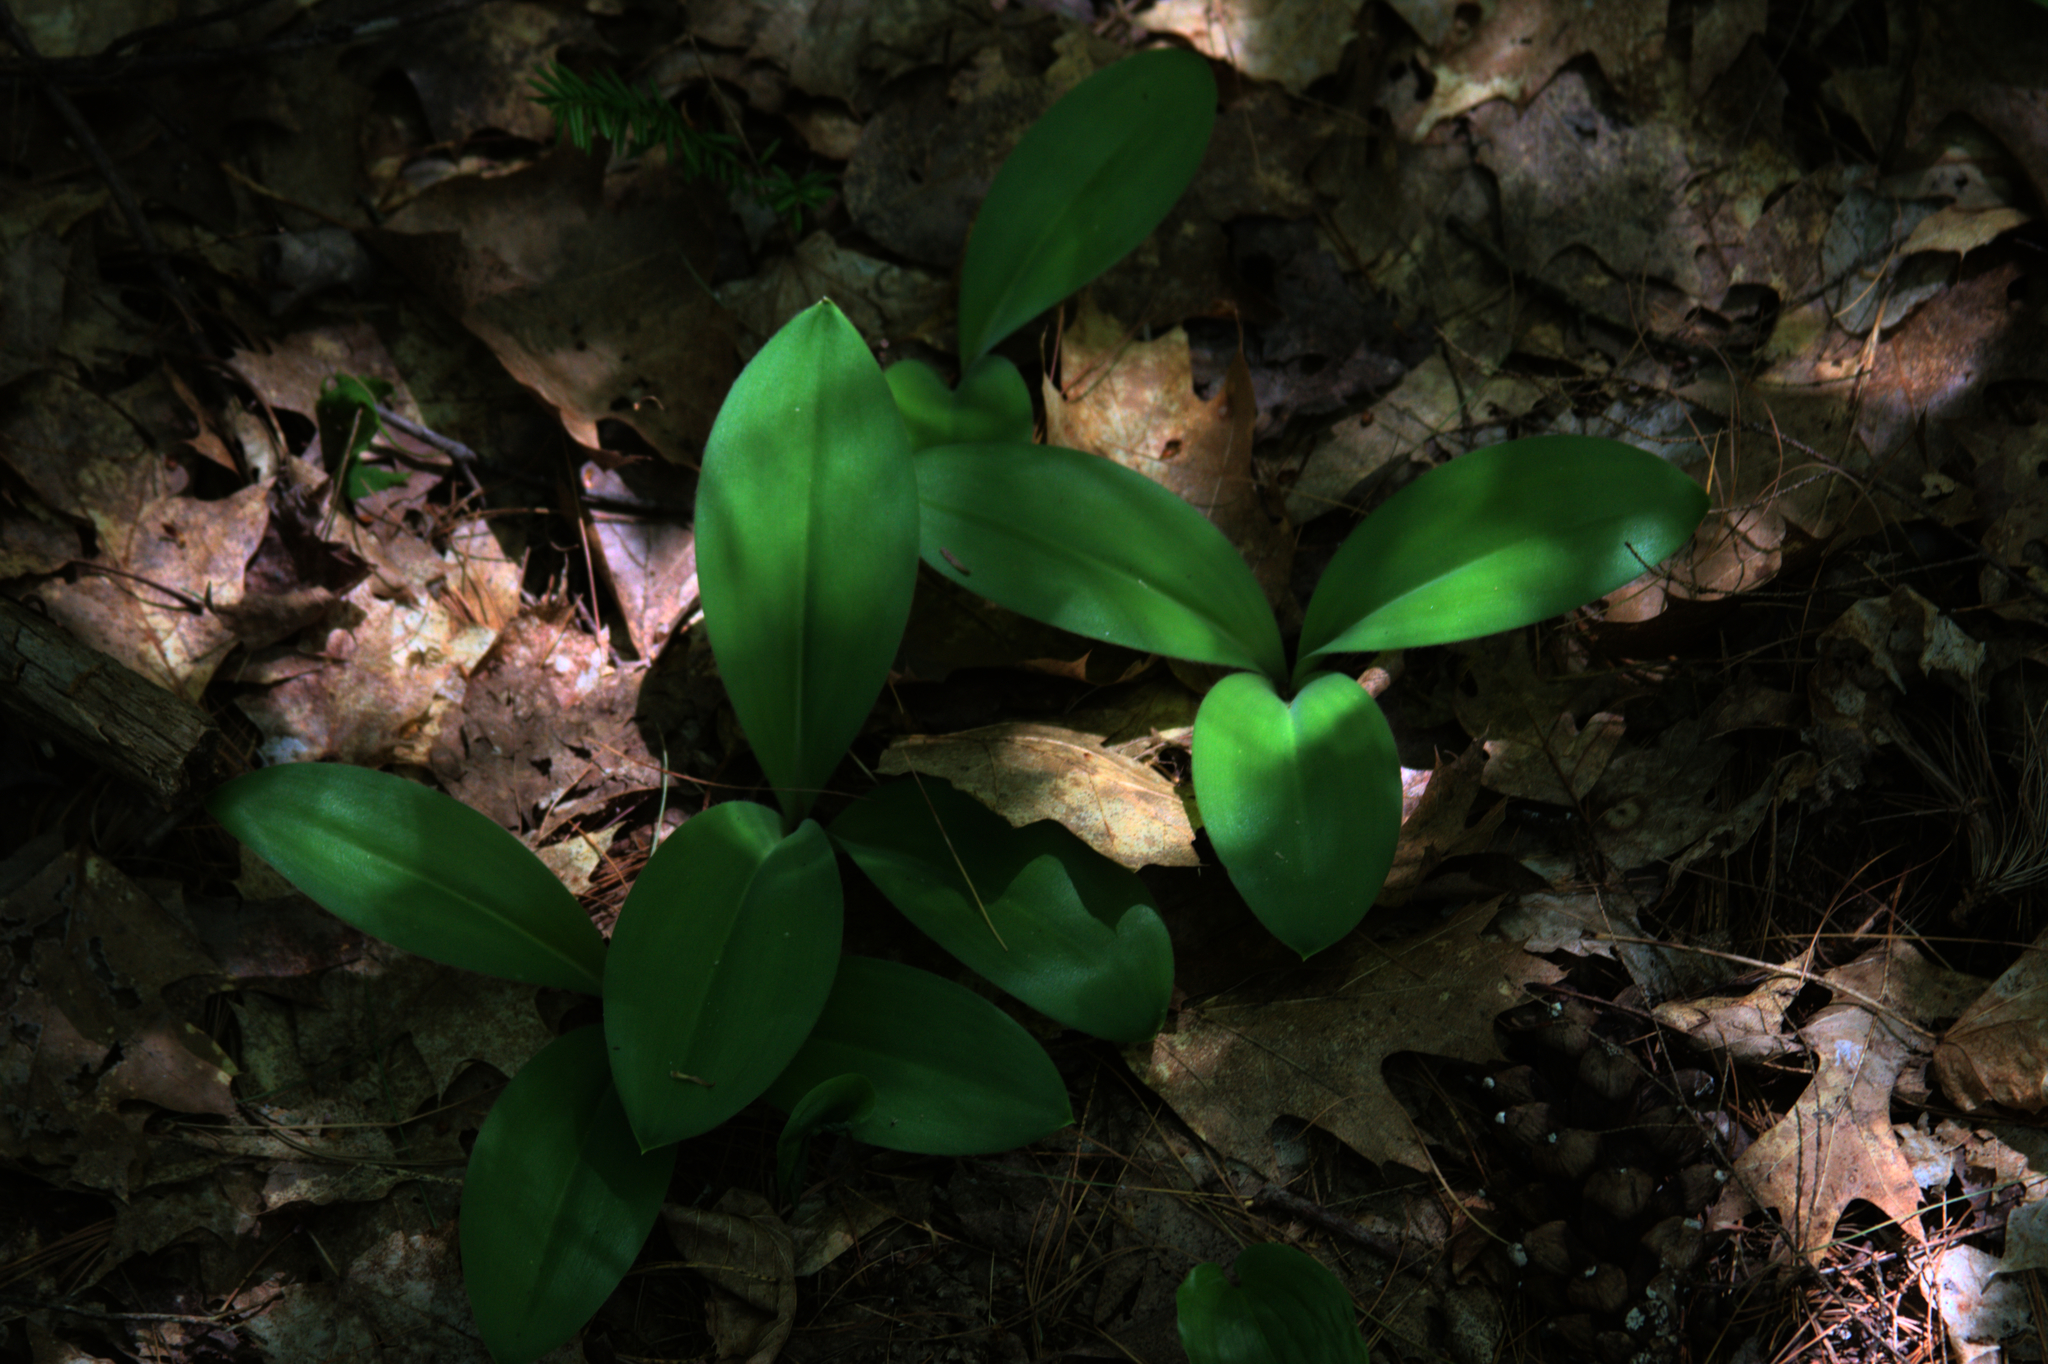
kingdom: Plantae
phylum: Tracheophyta
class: Liliopsida
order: Liliales
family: Liliaceae
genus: Clintonia
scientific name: Clintonia borealis
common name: Yellow clintonia
